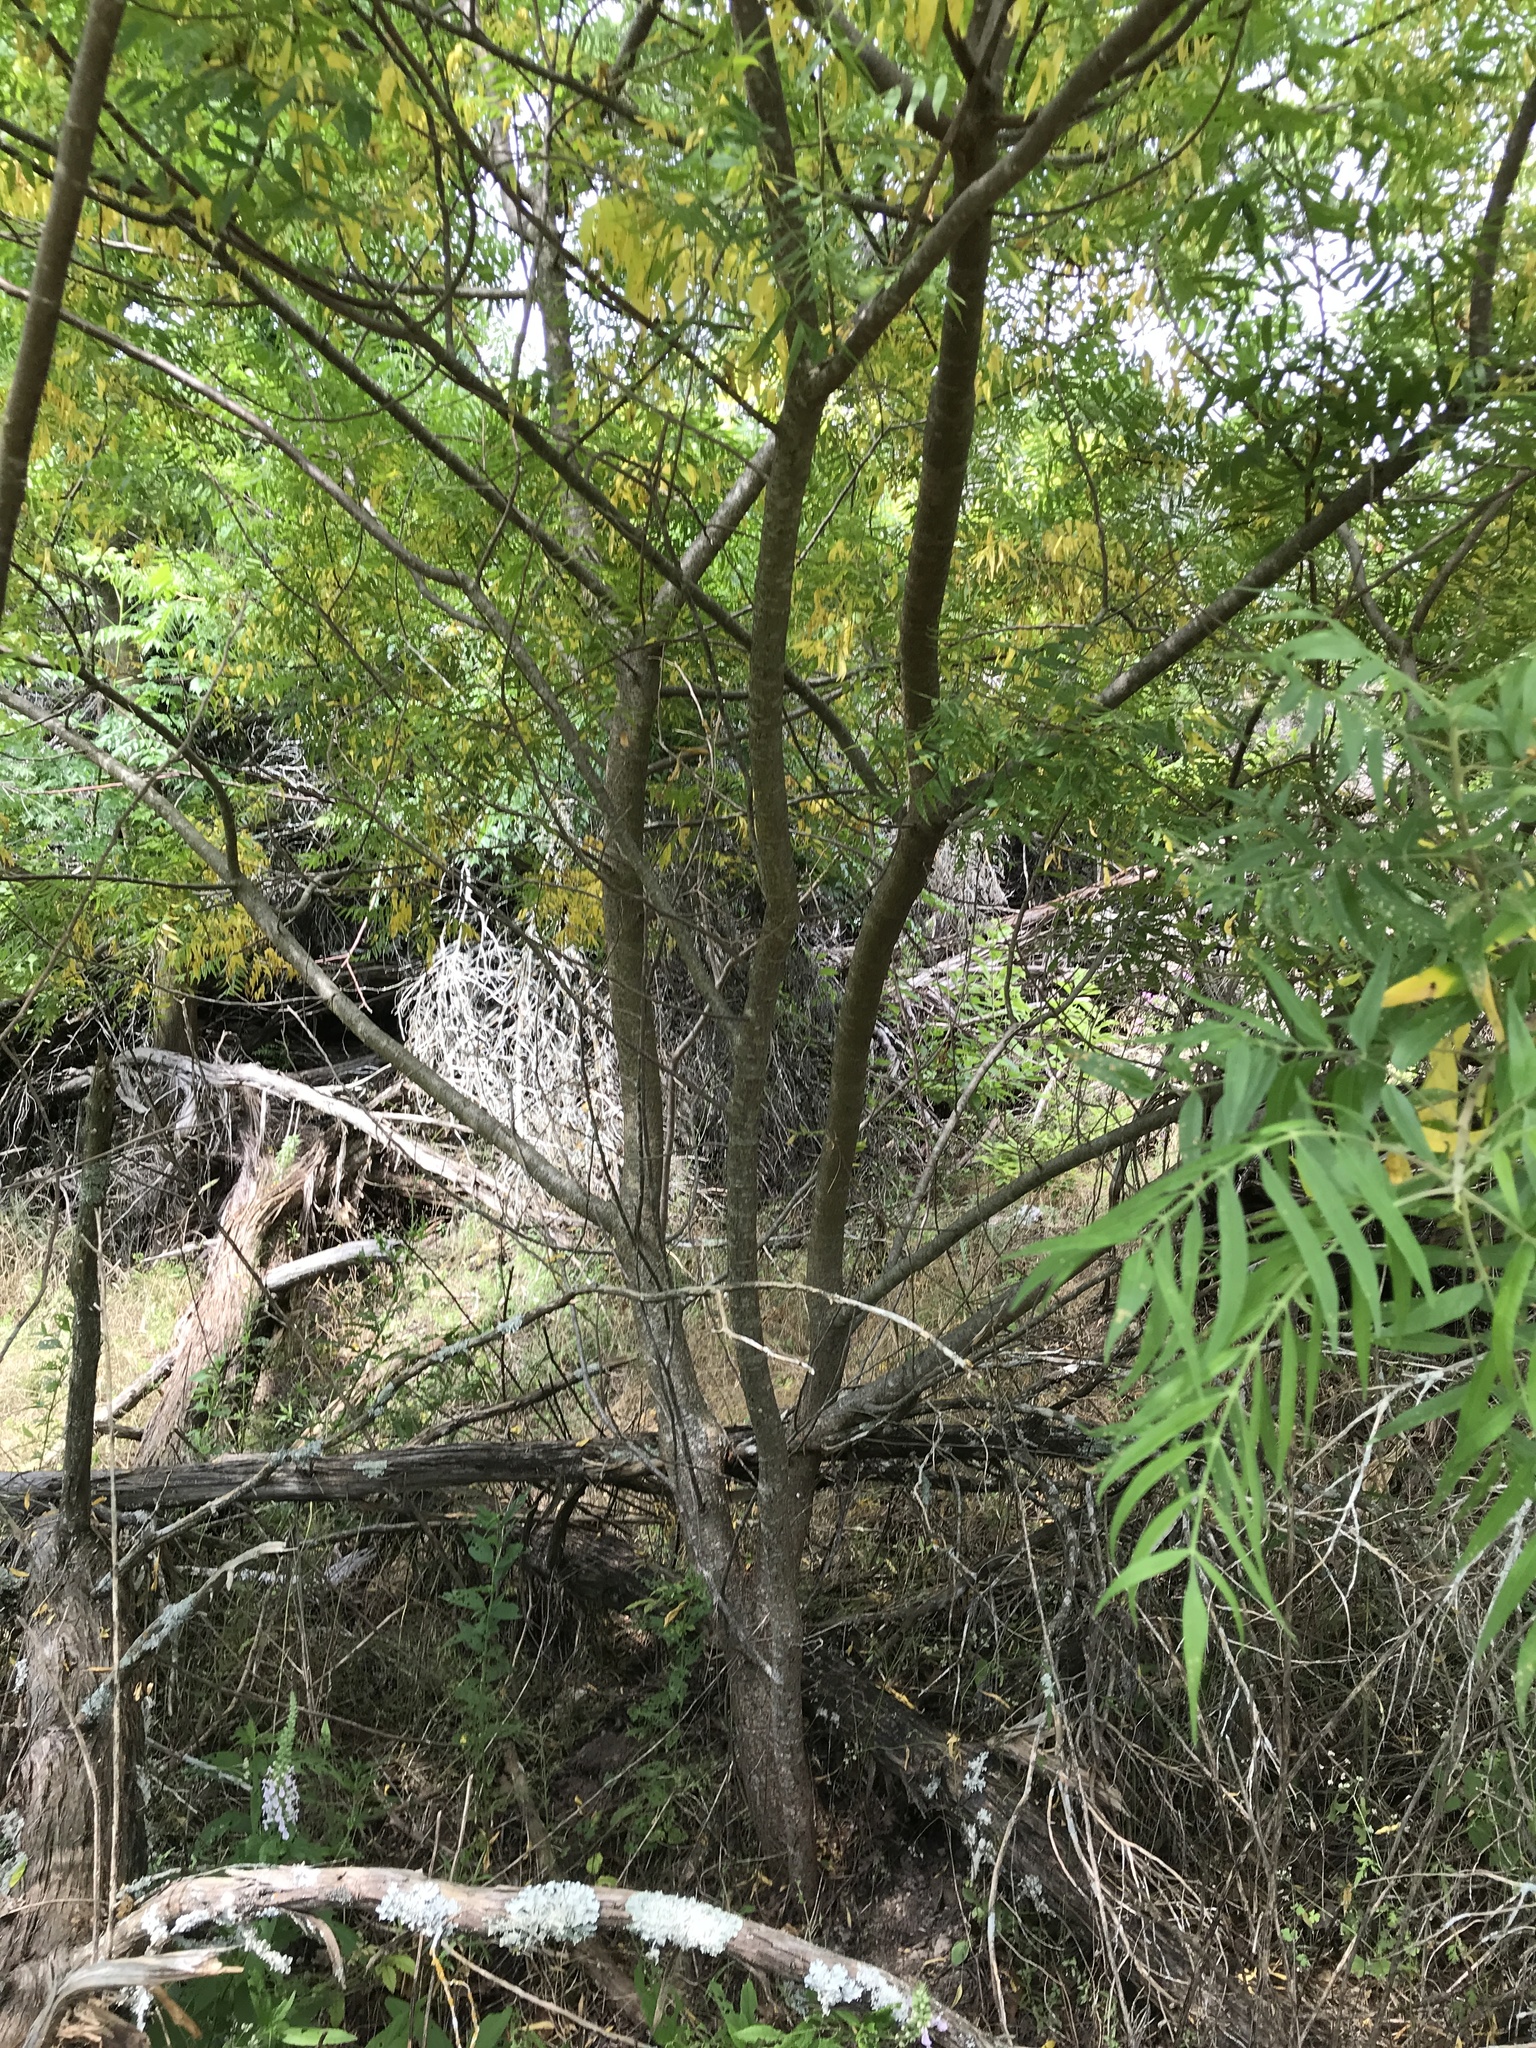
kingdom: Plantae
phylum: Tracheophyta
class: Magnoliopsida
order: Sapindales
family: Anacardiaceae
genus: Rhus
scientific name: Rhus lanceolata
